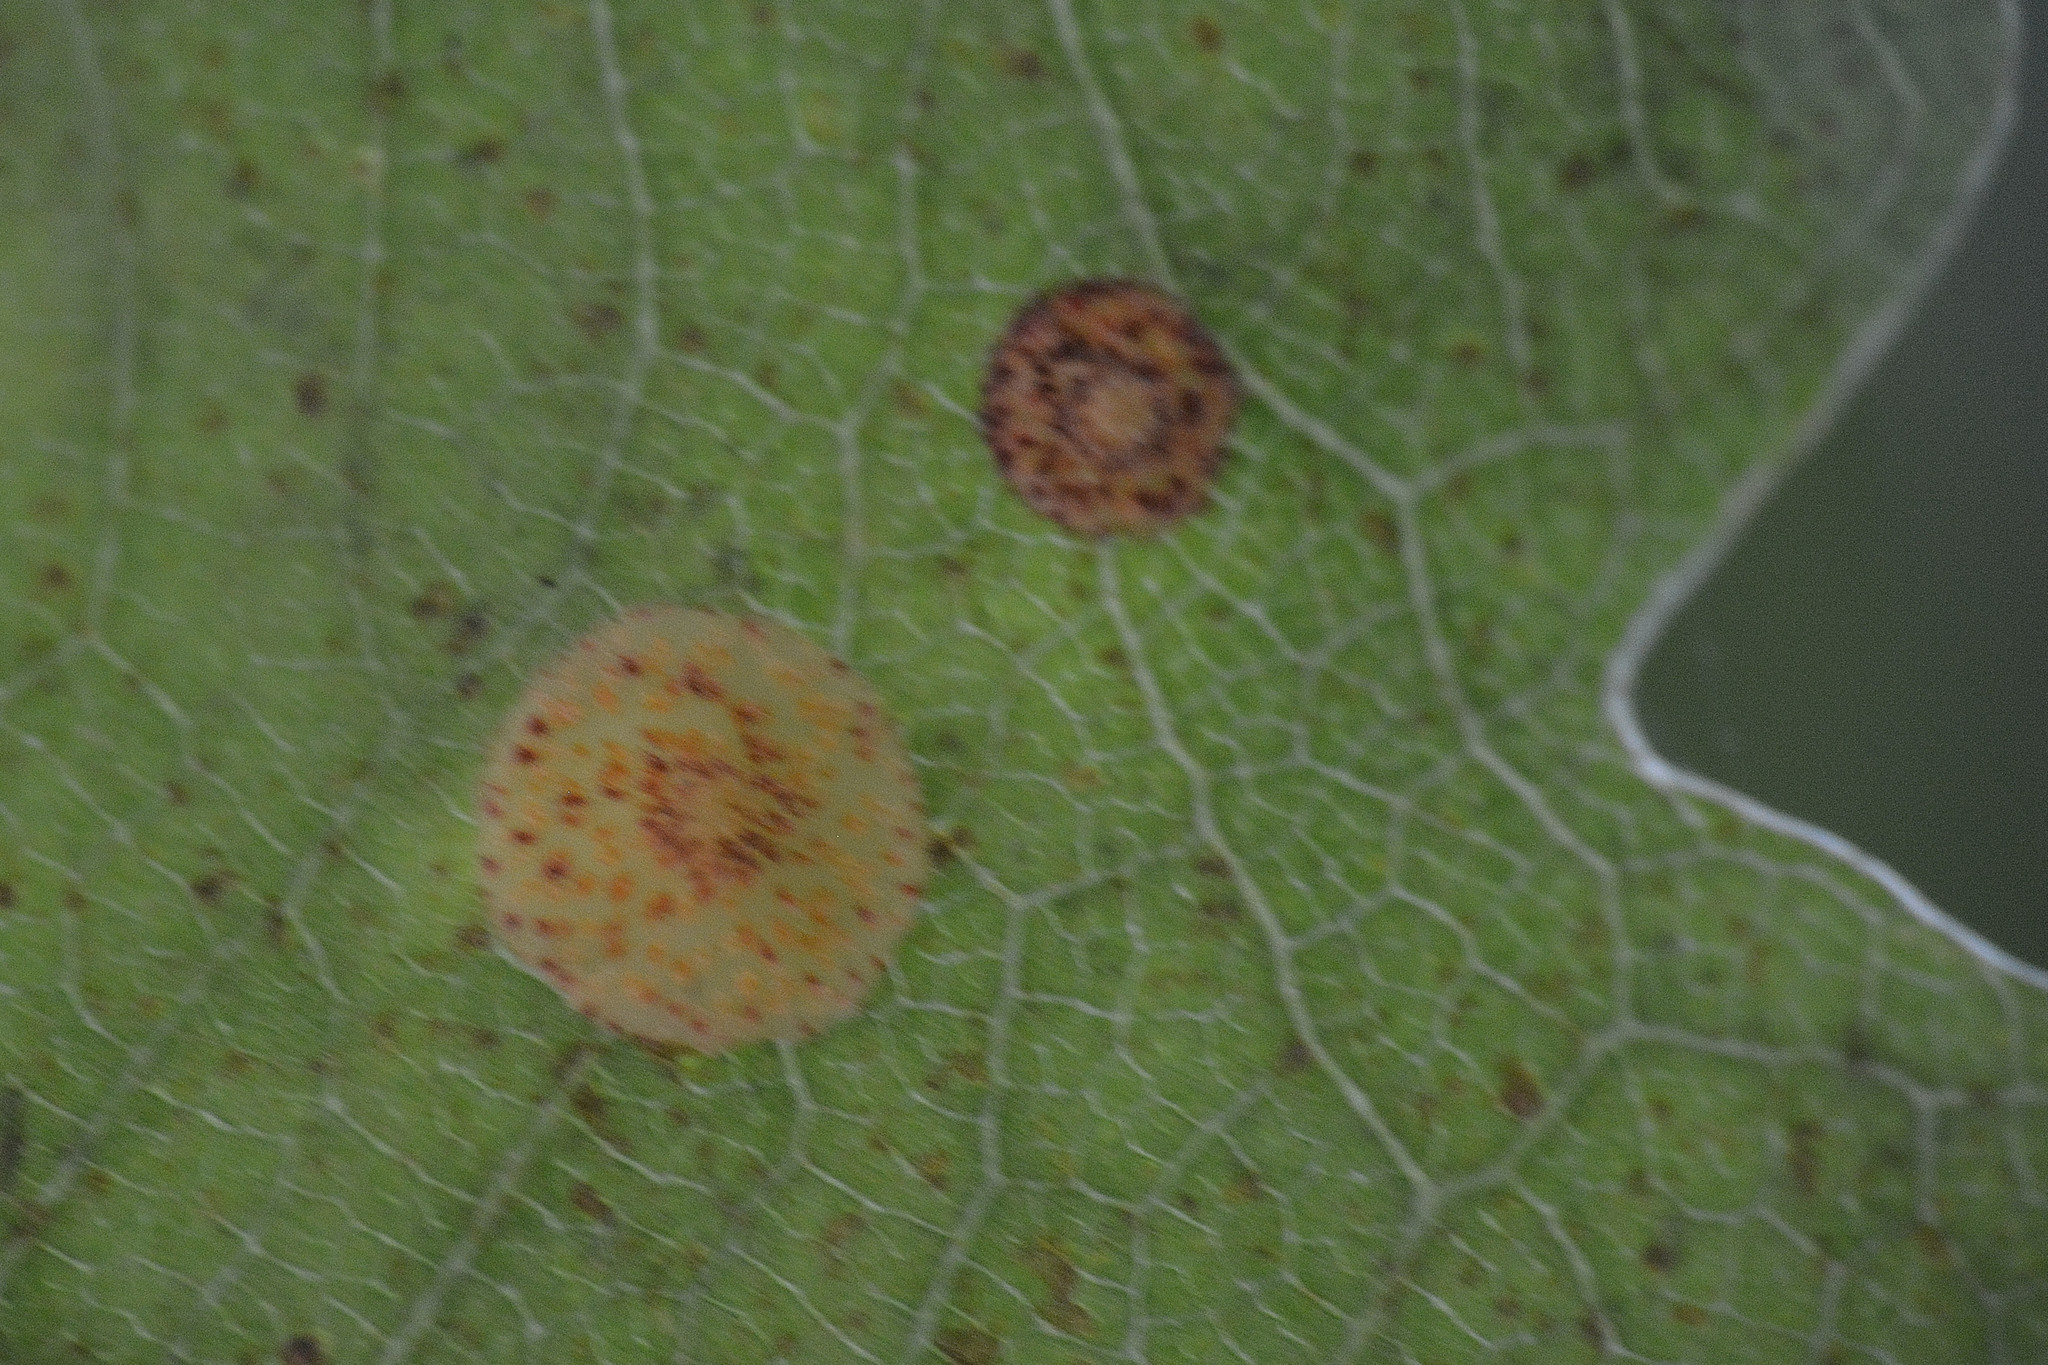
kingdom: Animalia
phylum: Arthropoda
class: Insecta
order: Hymenoptera
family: Cynipidae
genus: Neuroterus
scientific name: Neuroterus quercusbaccarum
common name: Common spangle gall
